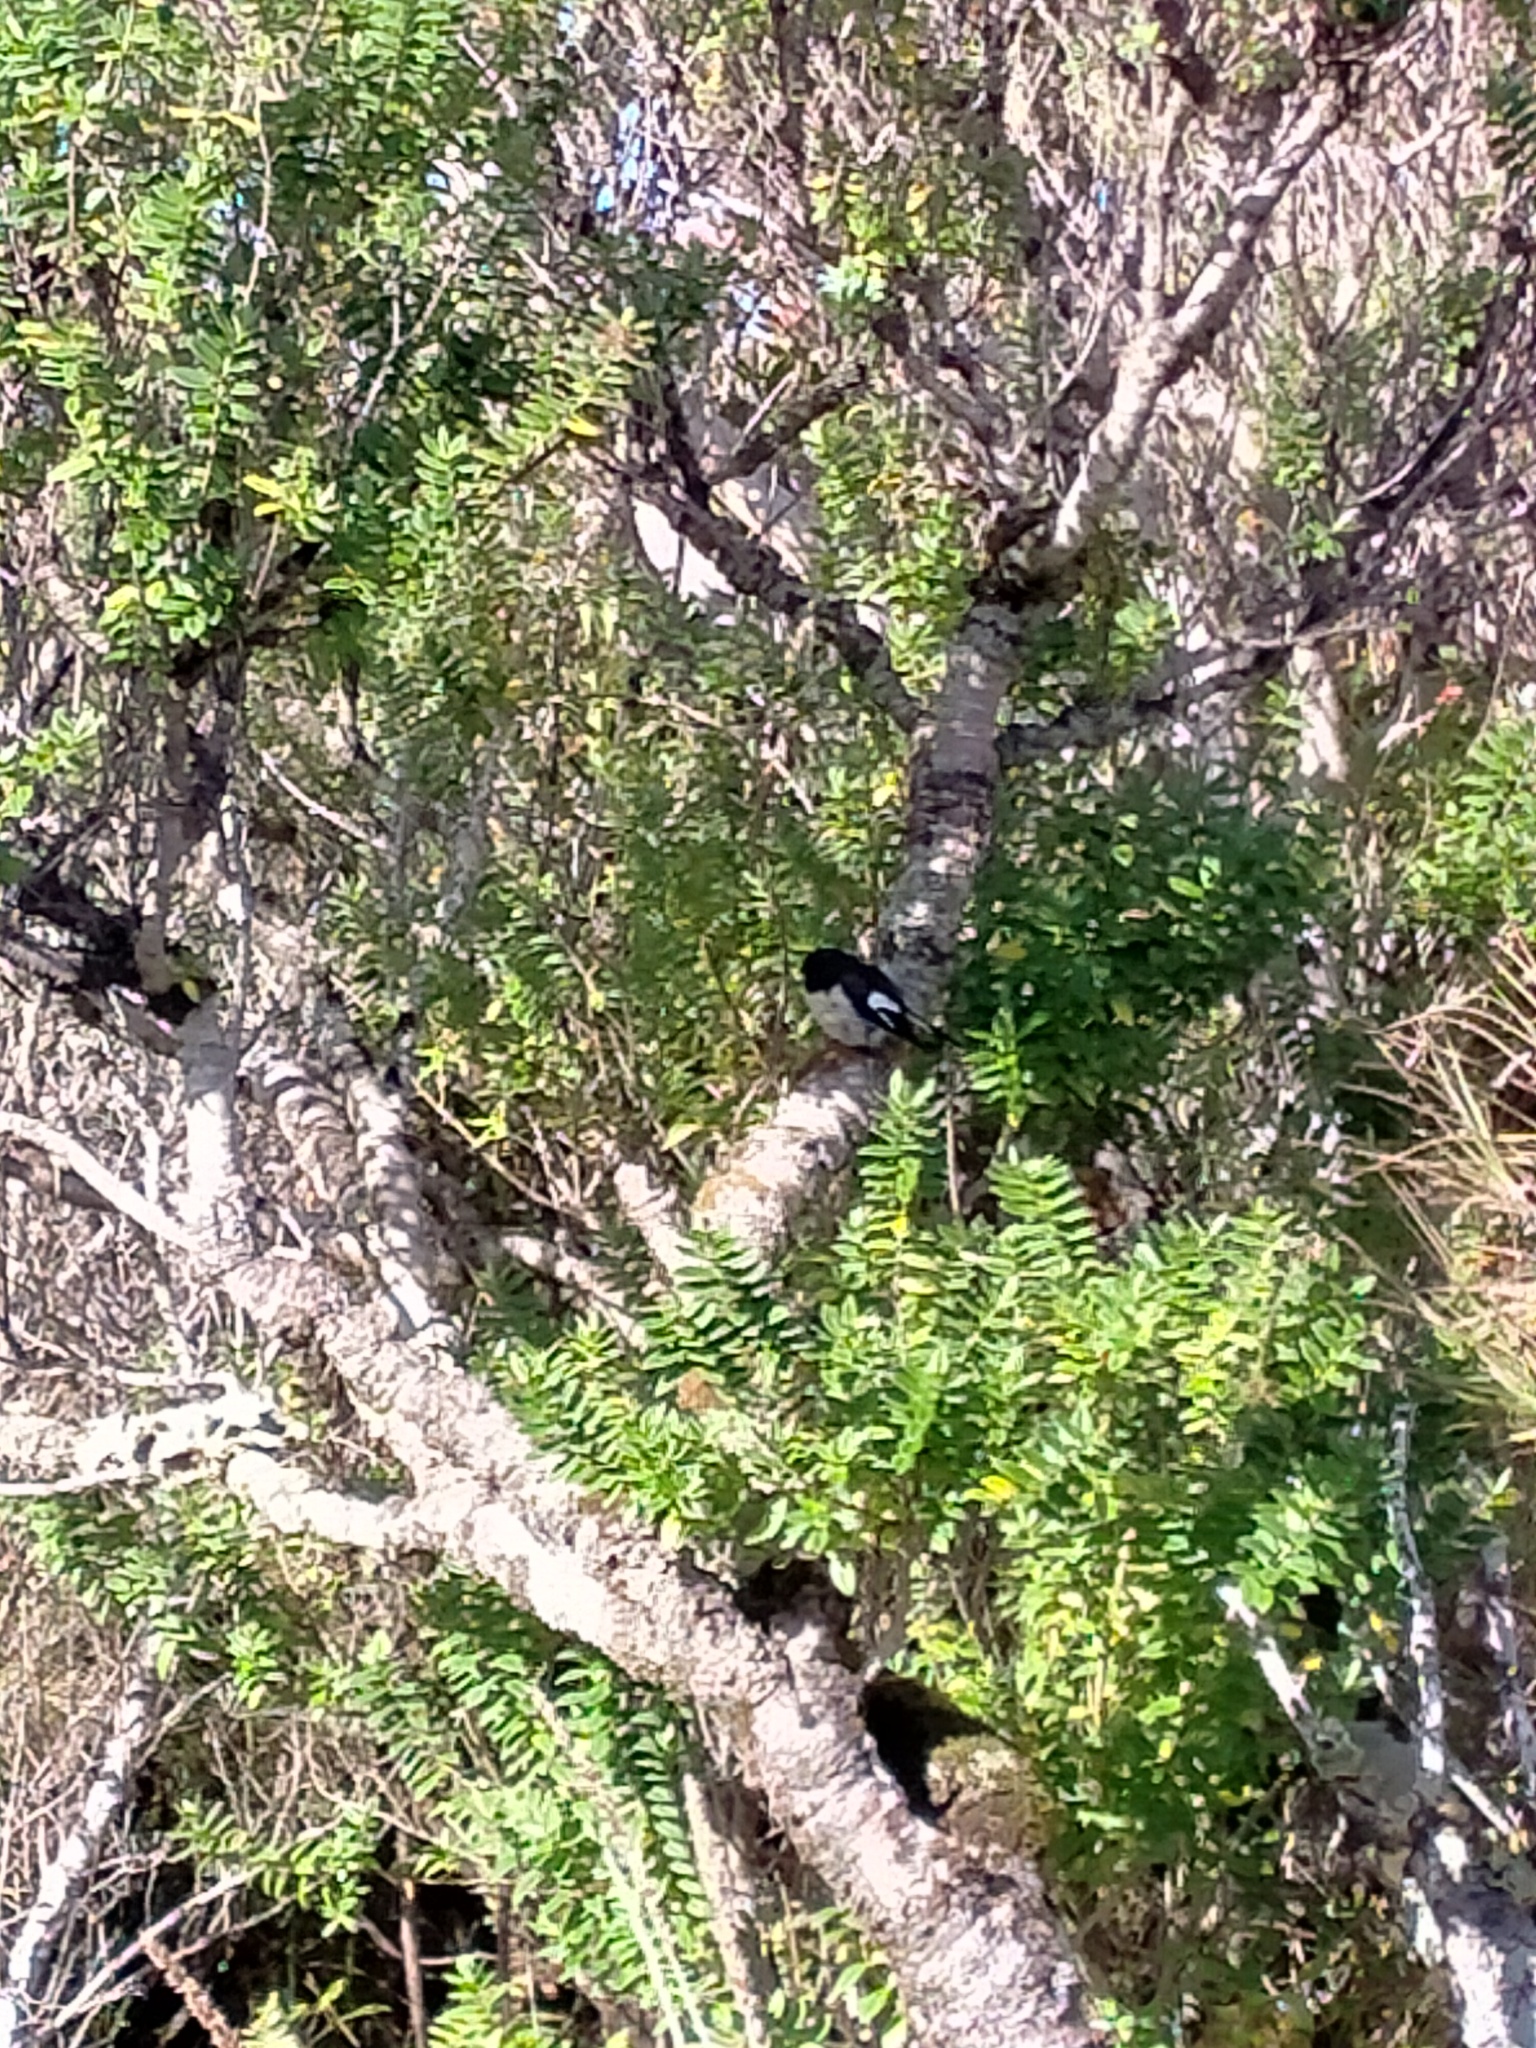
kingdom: Animalia
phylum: Chordata
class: Aves
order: Passeriformes
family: Petroicidae
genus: Petroica
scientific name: Petroica macrocephala
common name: Tomtit
